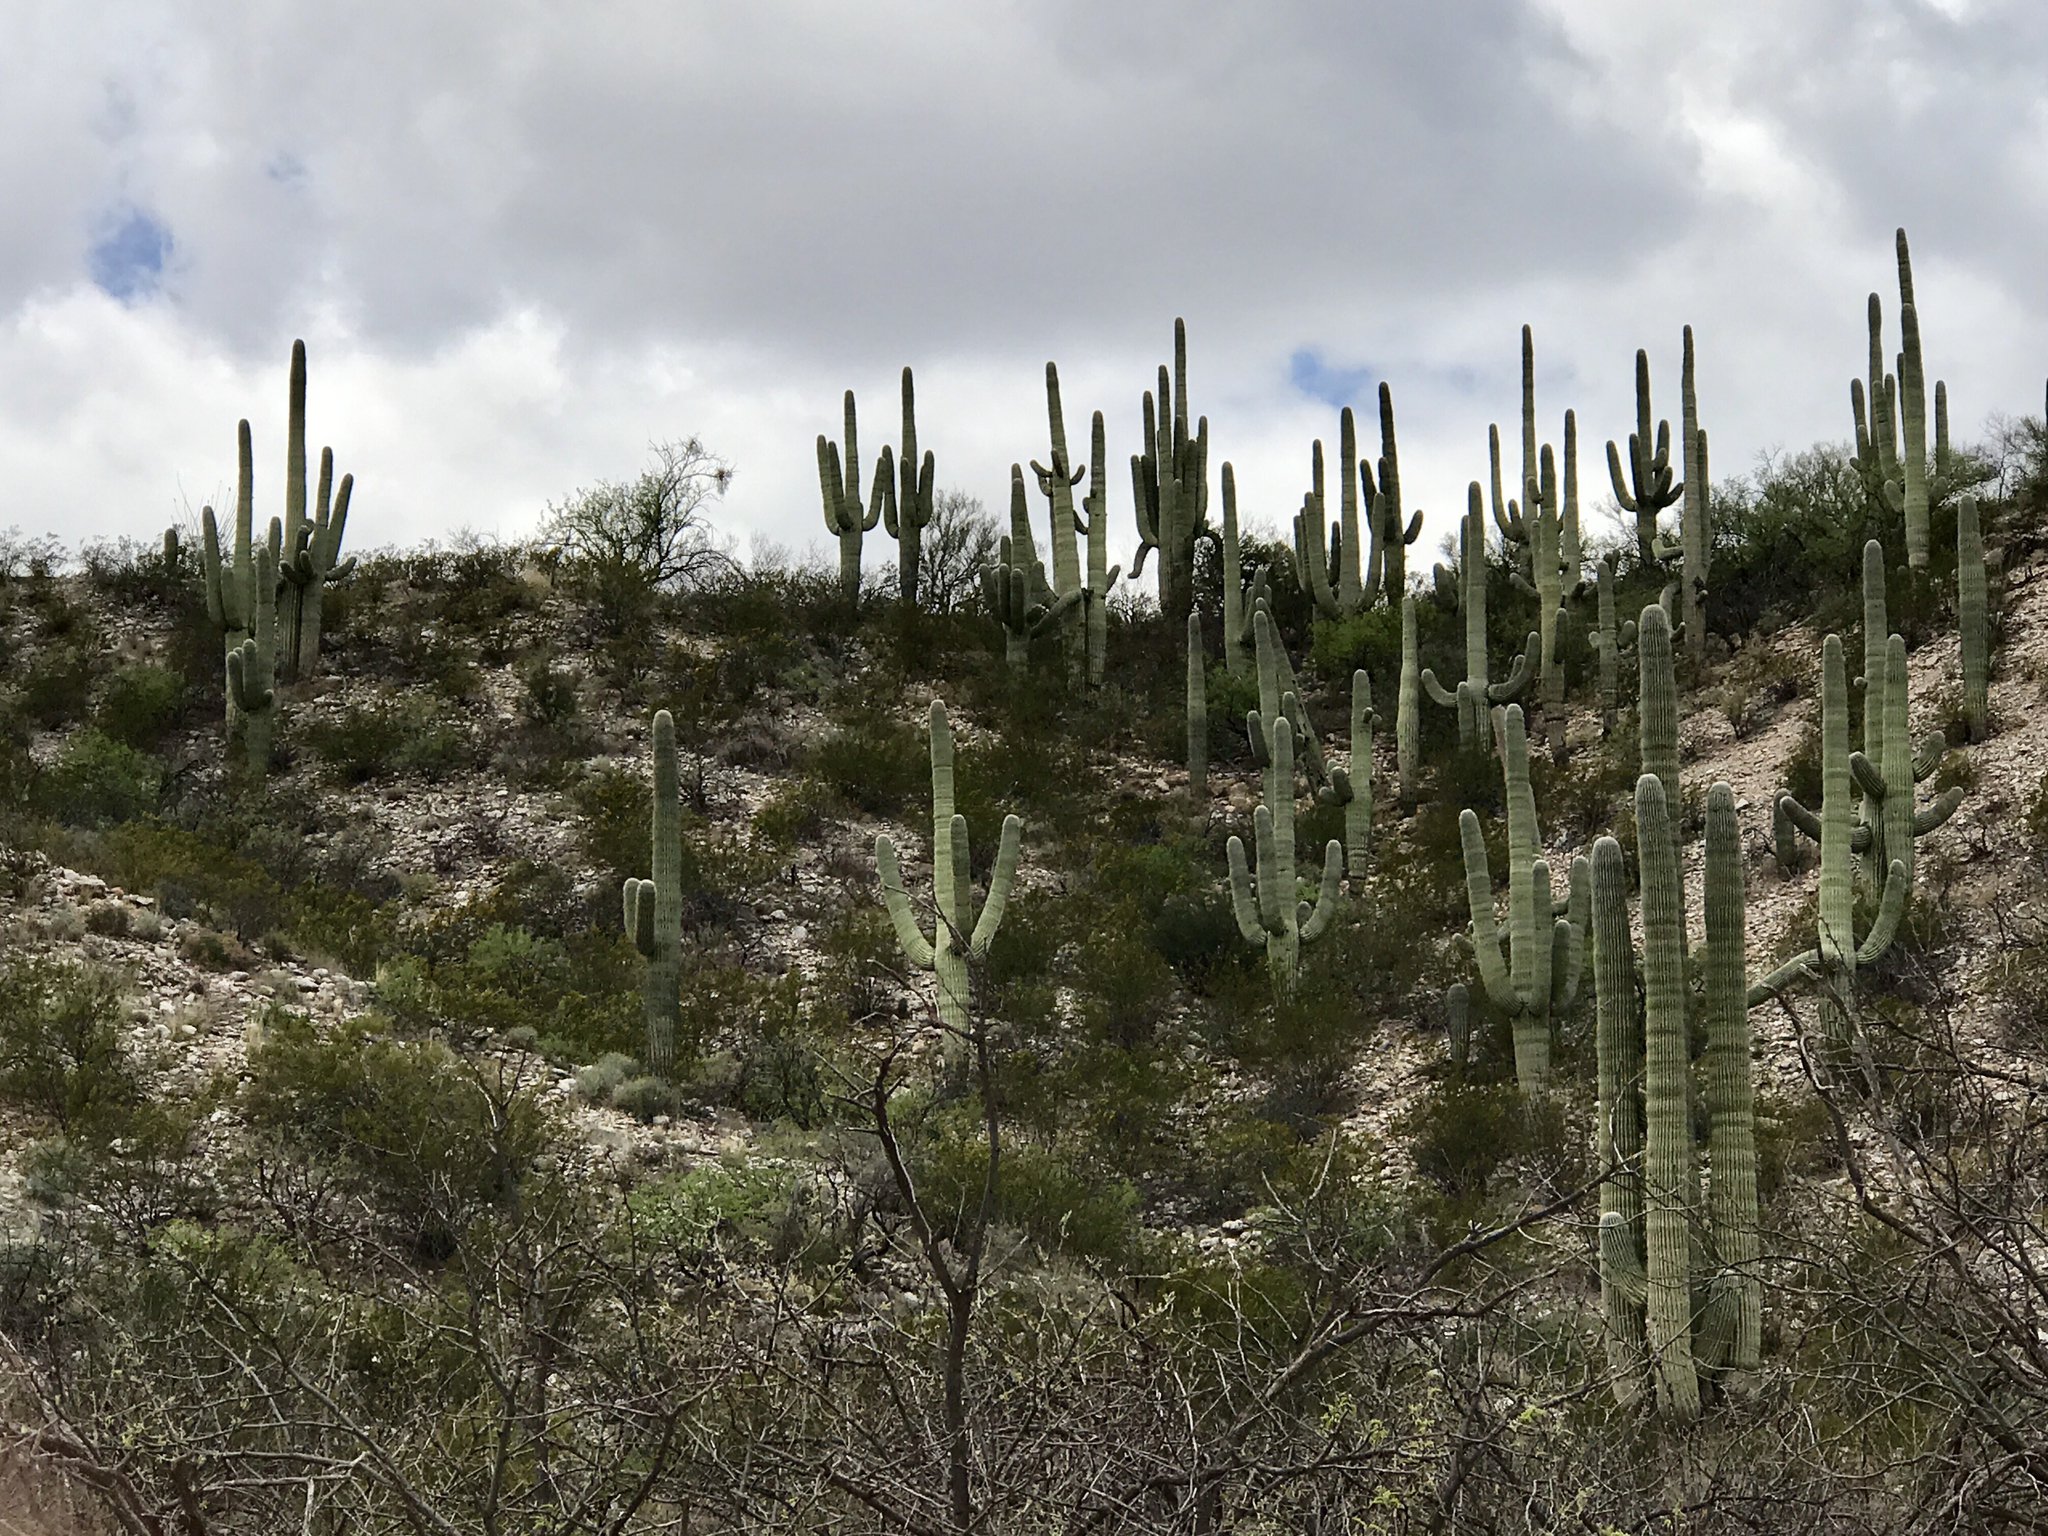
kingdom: Plantae
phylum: Tracheophyta
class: Magnoliopsida
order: Caryophyllales
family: Cactaceae
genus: Carnegiea
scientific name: Carnegiea gigantea
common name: Saguaro
